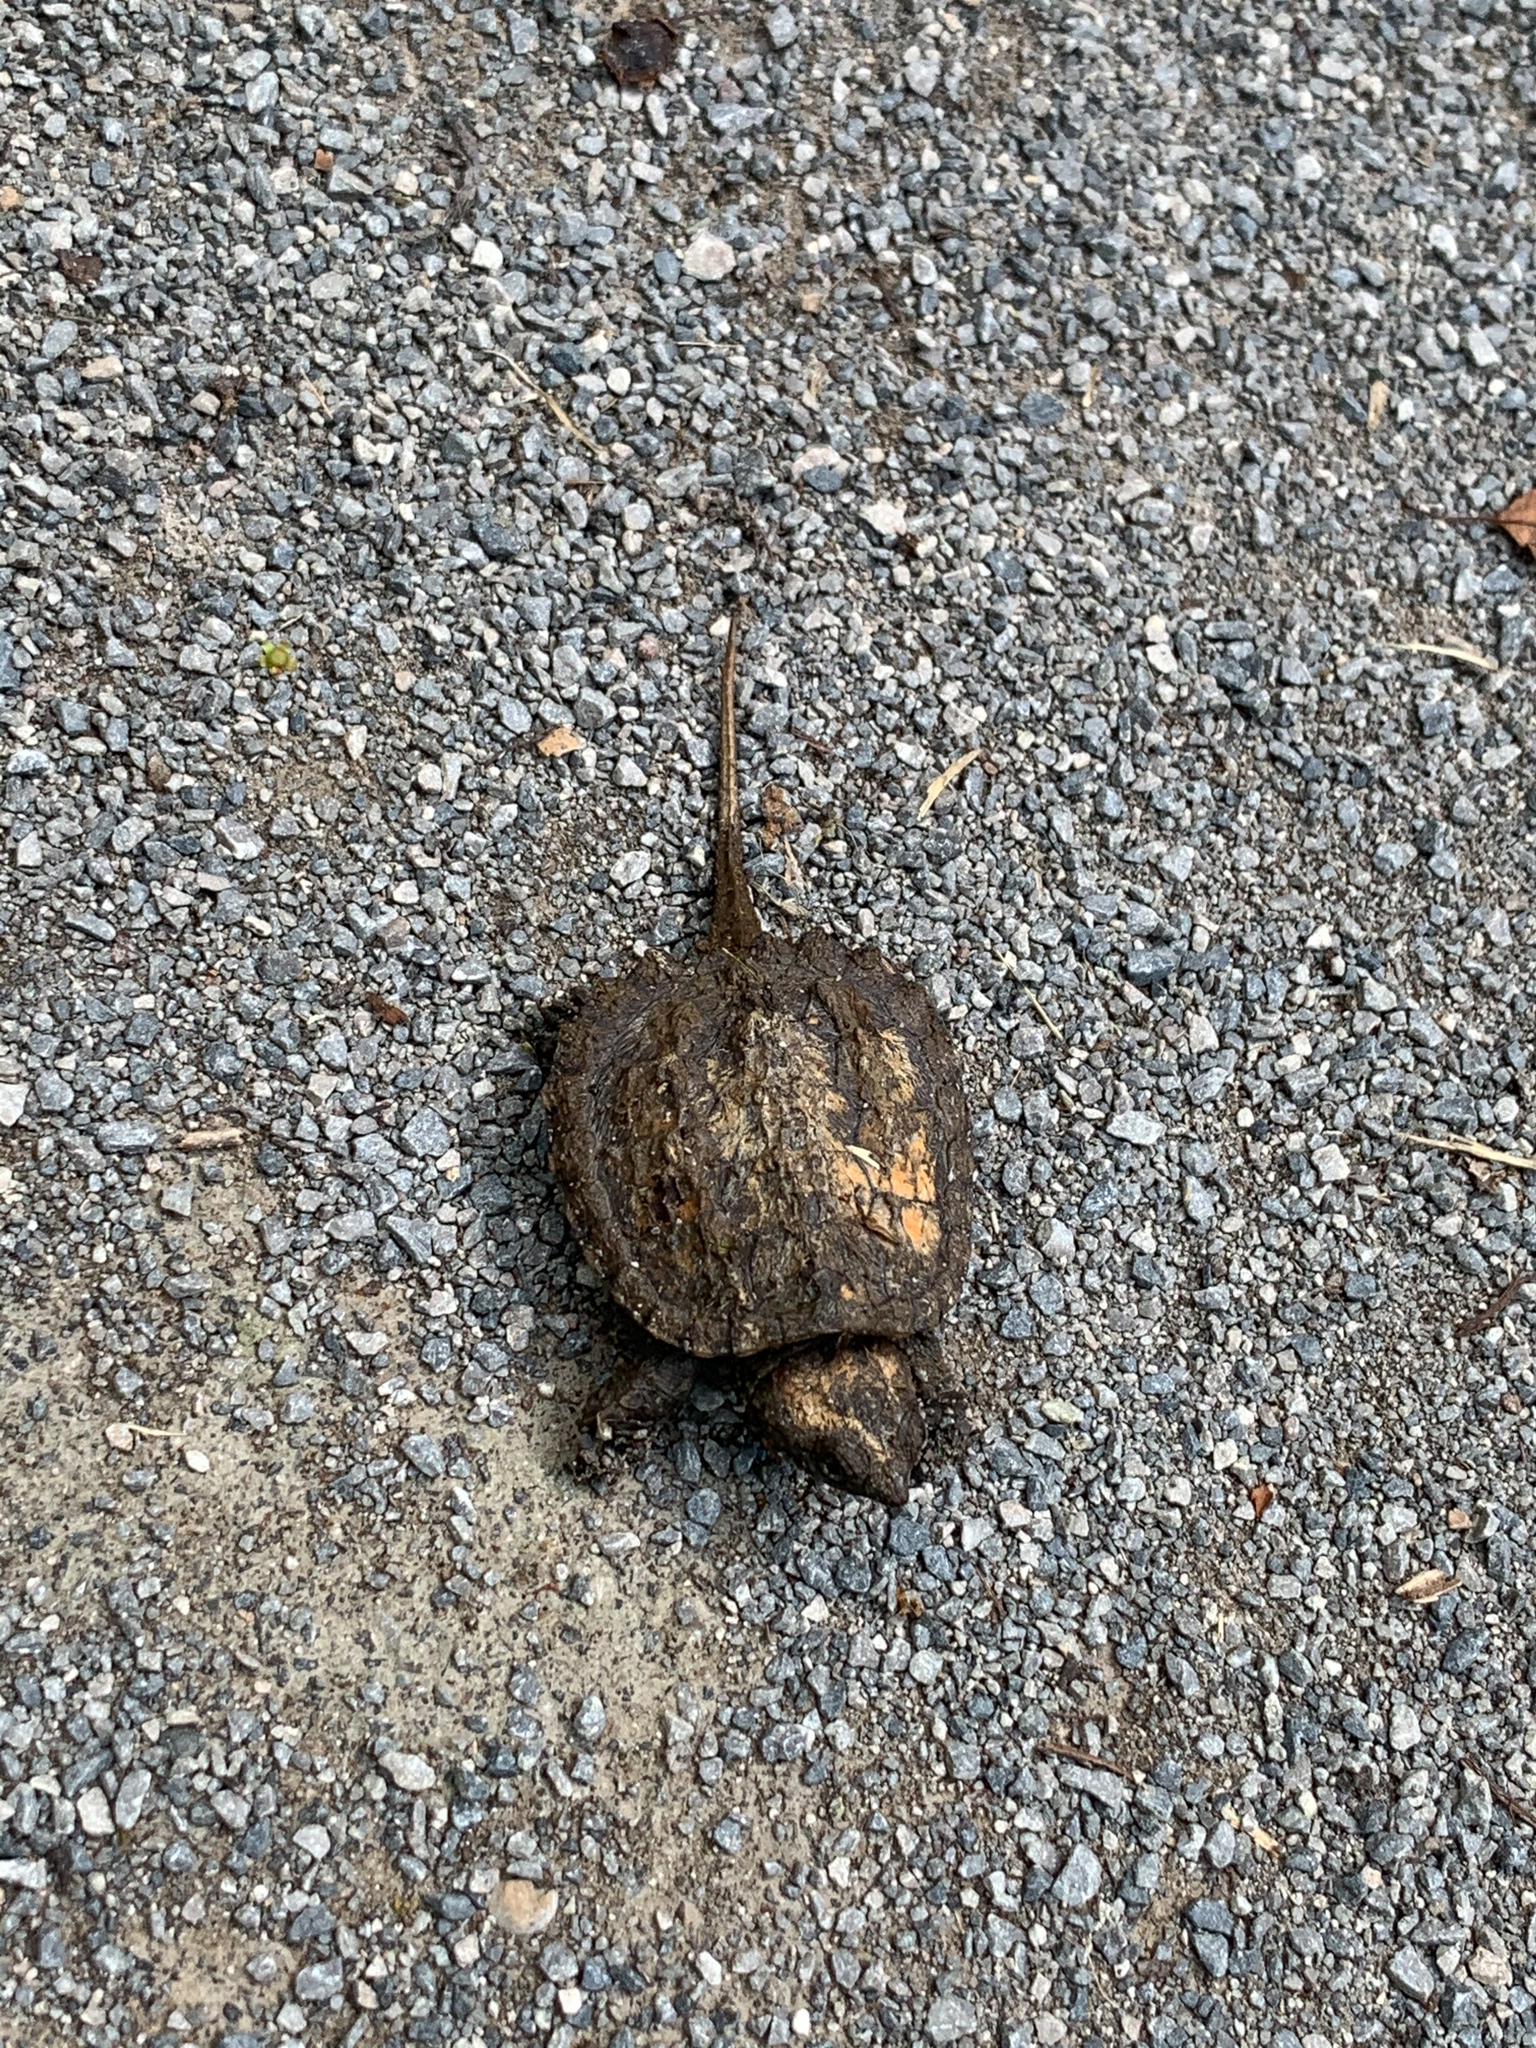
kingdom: Animalia
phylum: Chordata
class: Testudines
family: Chelydridae
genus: Chelydra
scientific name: Chelydra serpentina
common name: Common snapping turtle
